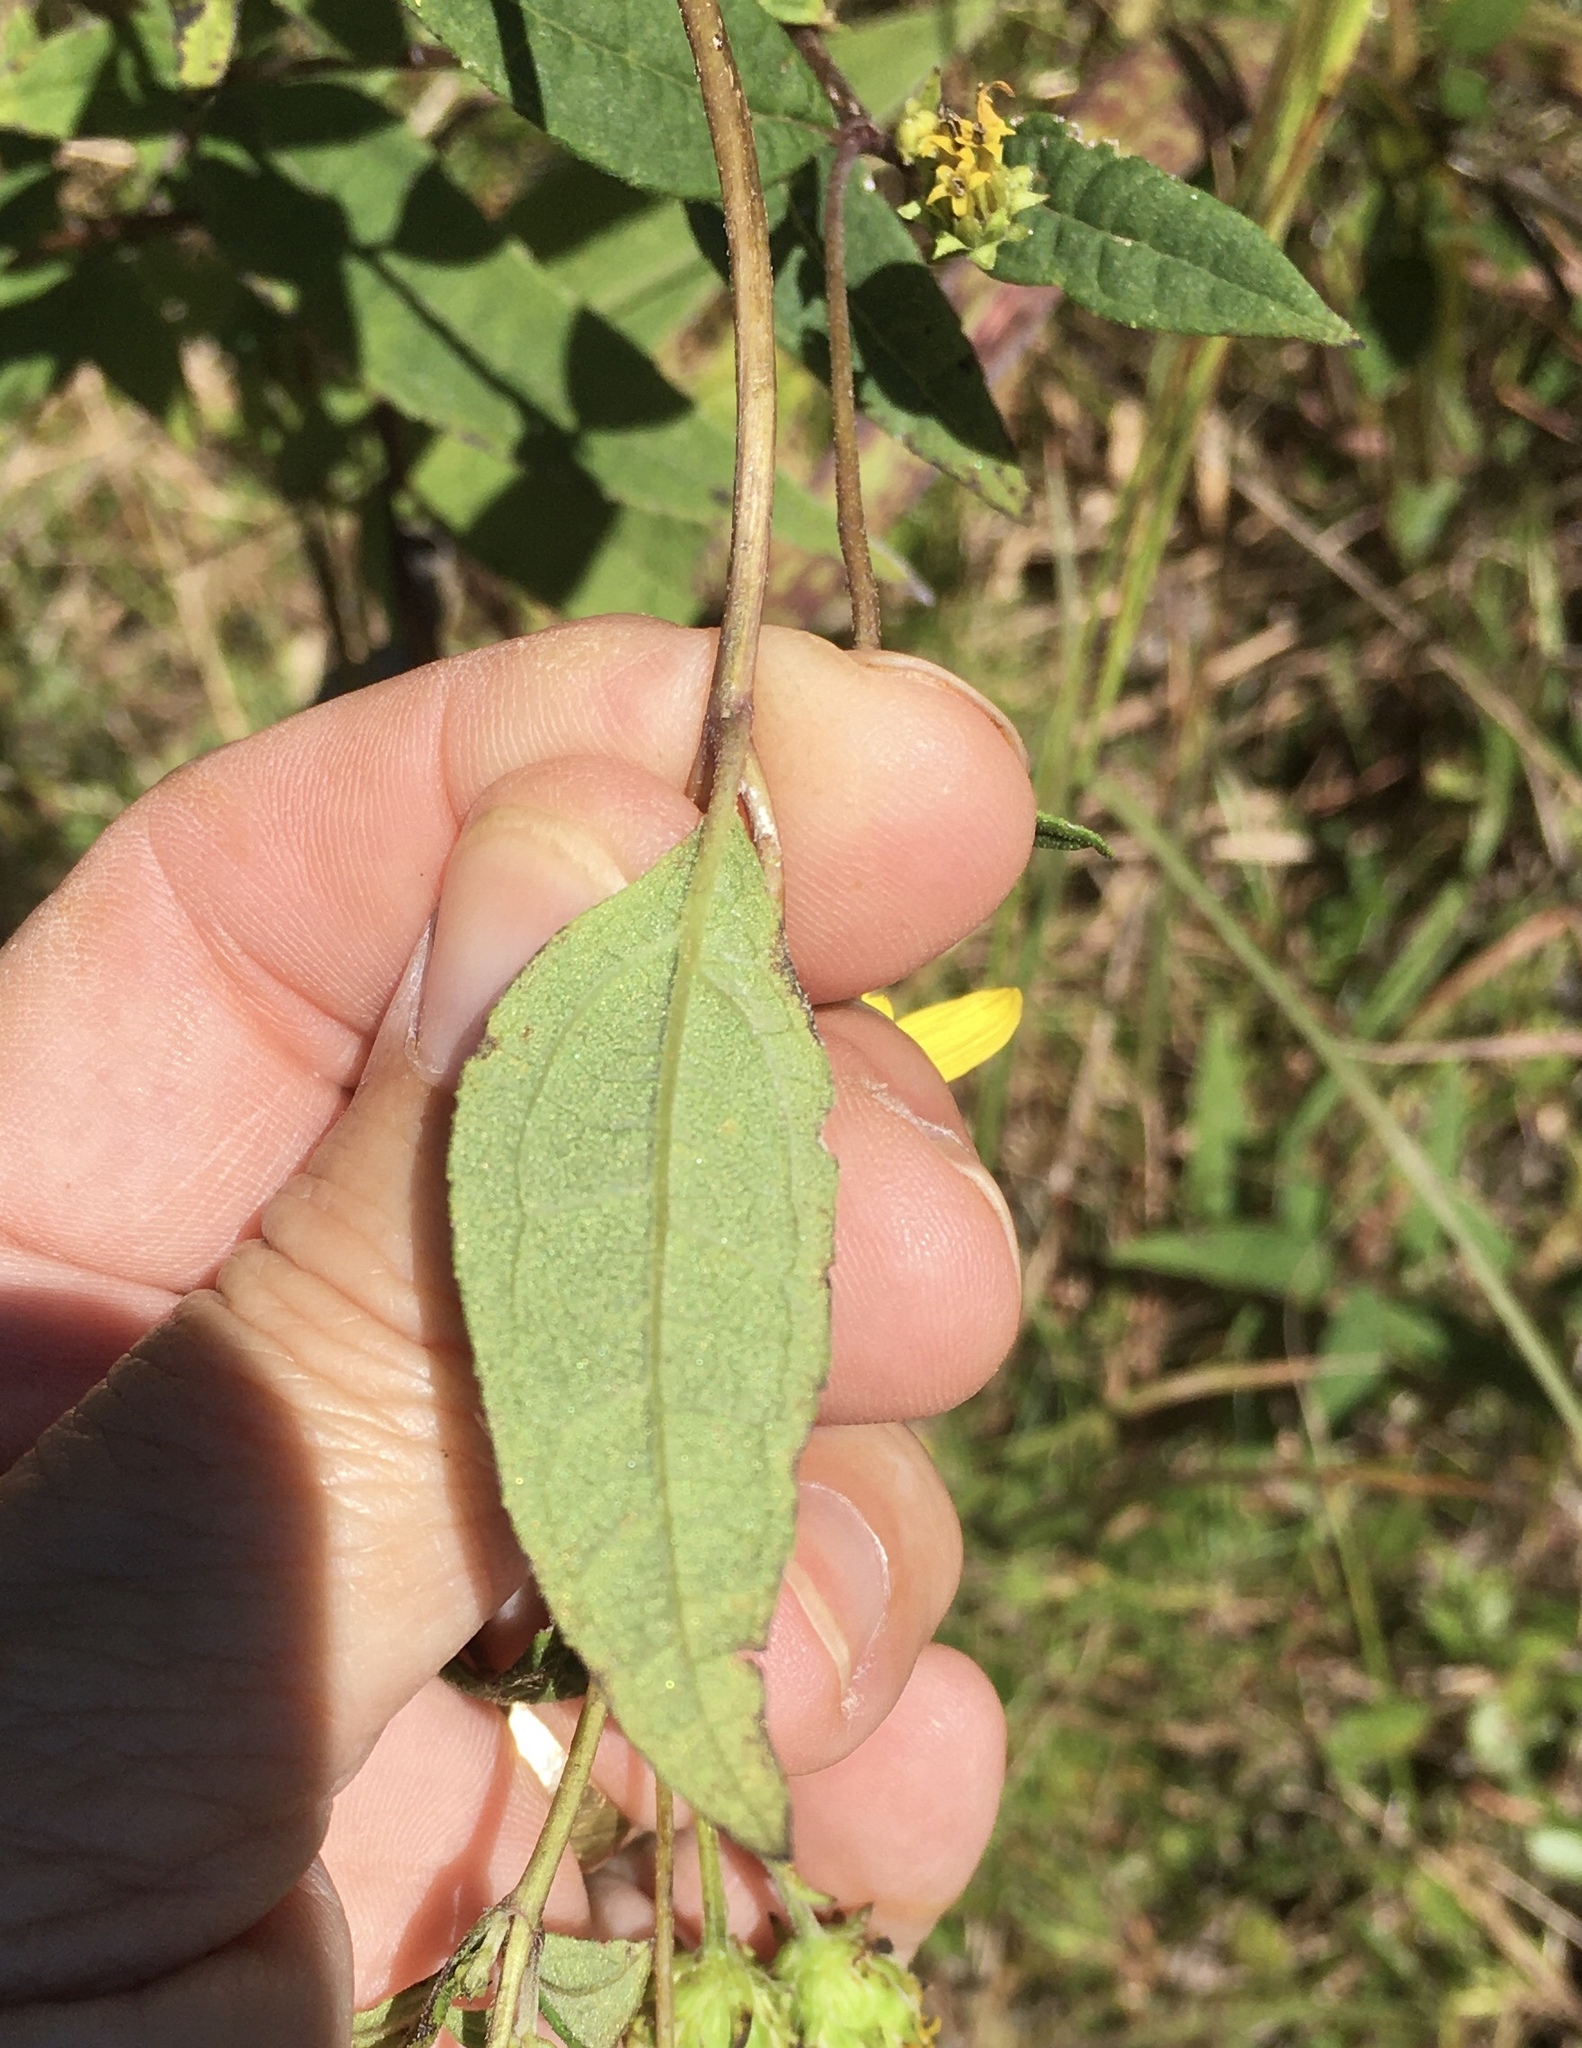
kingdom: Plantae
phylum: Tracheophyta
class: Magnoliopsida
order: Asterales
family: Asteraceae
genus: Helianthus
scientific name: Helianthus microcephalus
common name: Woodland sunflower
